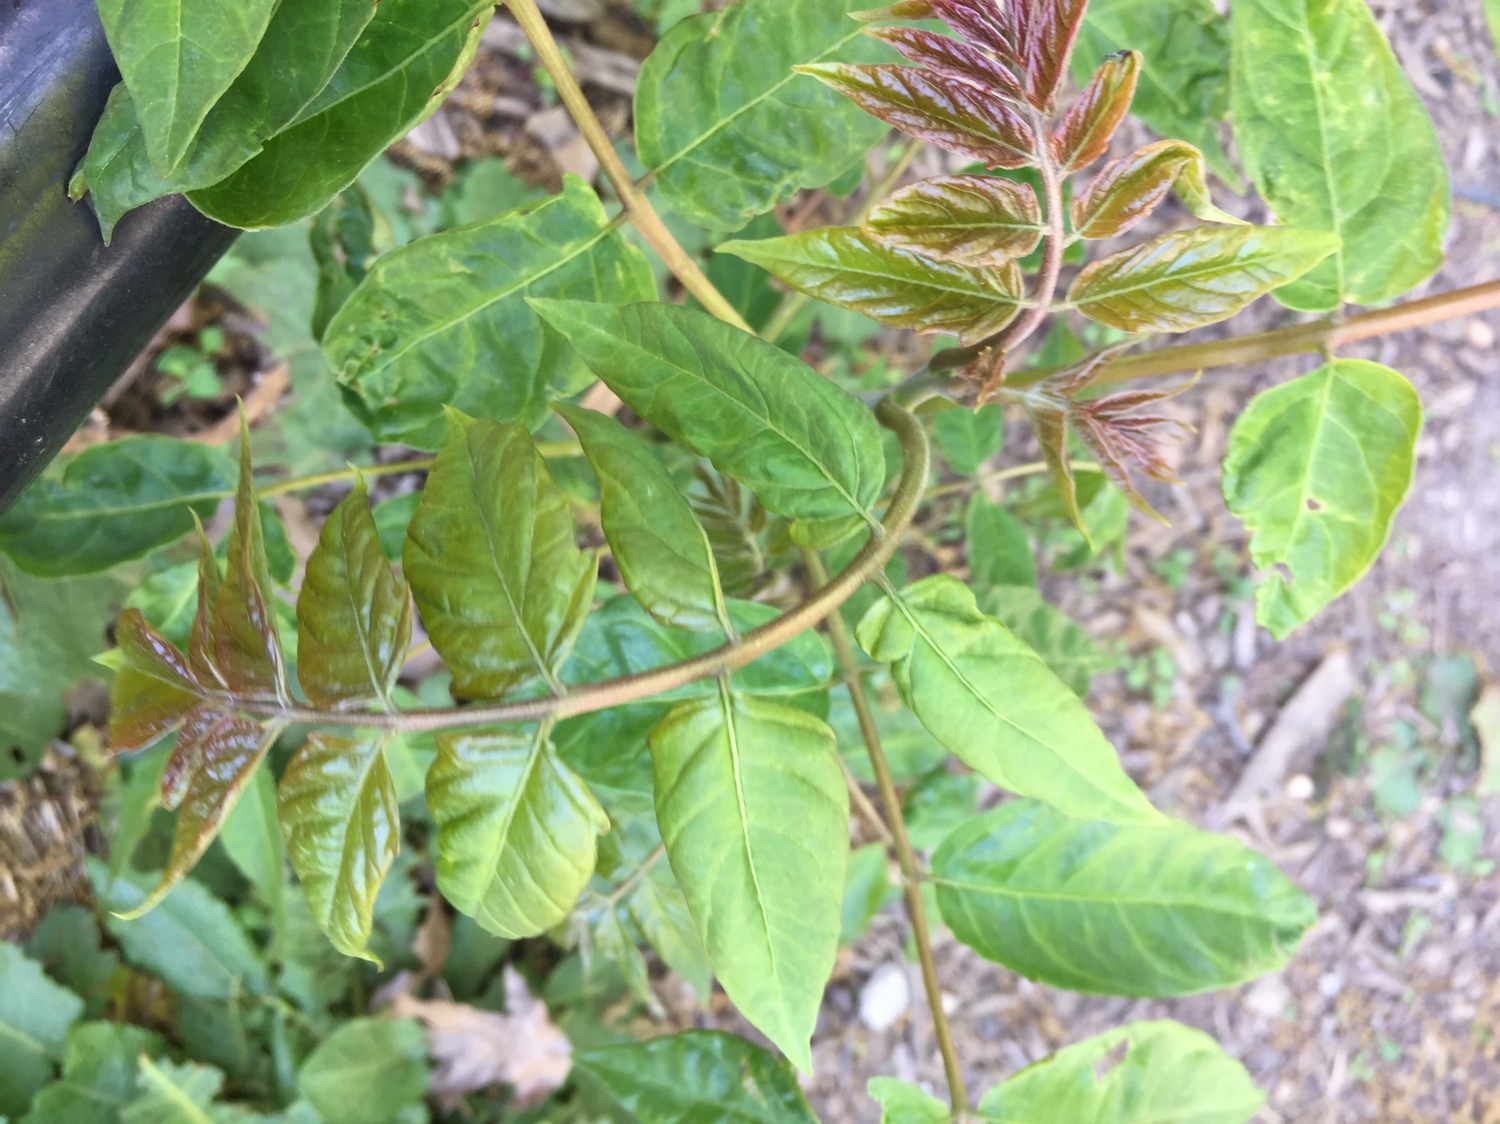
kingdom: Plantae
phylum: Tracheophyta
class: Magnoliopsida
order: Sapindales
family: Simaroubaceae
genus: Ailanthus
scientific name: Ailanthus altissima
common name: Tree-of-heaven
